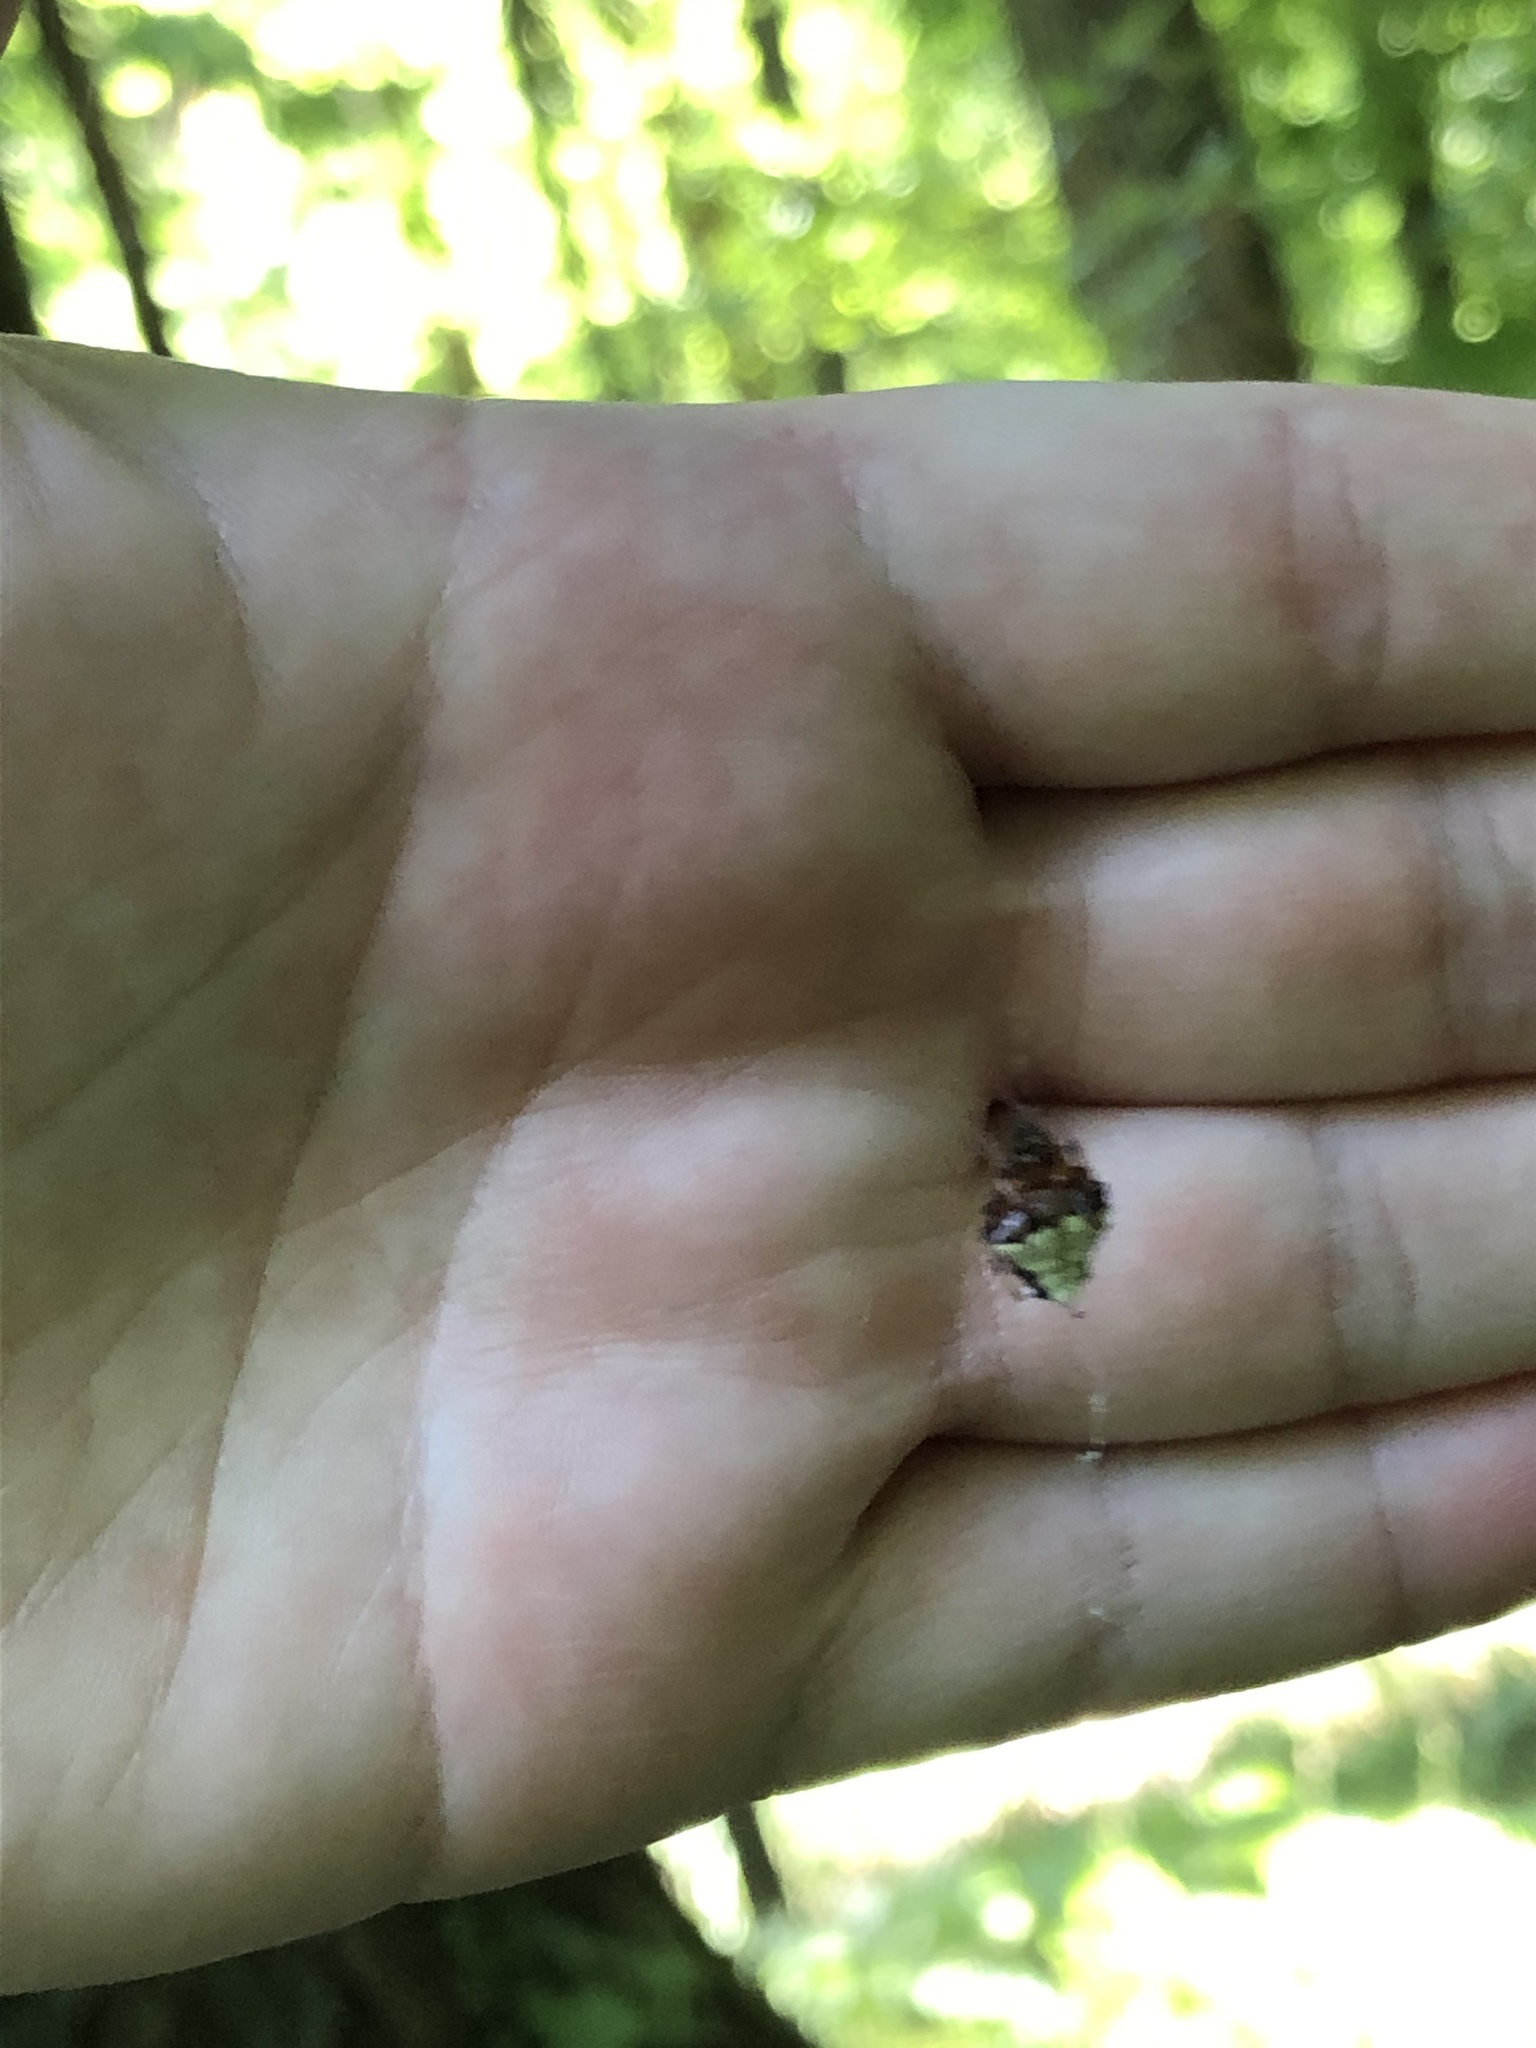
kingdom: Animalia
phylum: Arthropoda
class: Arachnida
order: Araneae
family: Araneidae
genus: Verrucosa
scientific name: Verrucosa arenata
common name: Orb weavers
